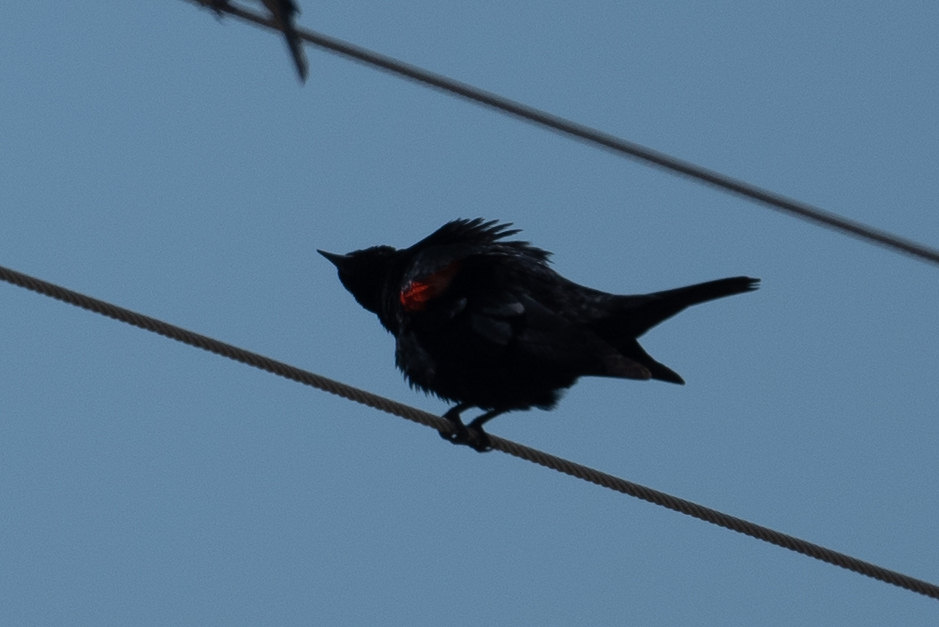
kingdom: Animalia
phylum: Chordata
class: Aves
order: Passeriformes
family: Icteridae
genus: Agelaius
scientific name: Agelaius phoeniceus
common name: Red-winged blackbird
